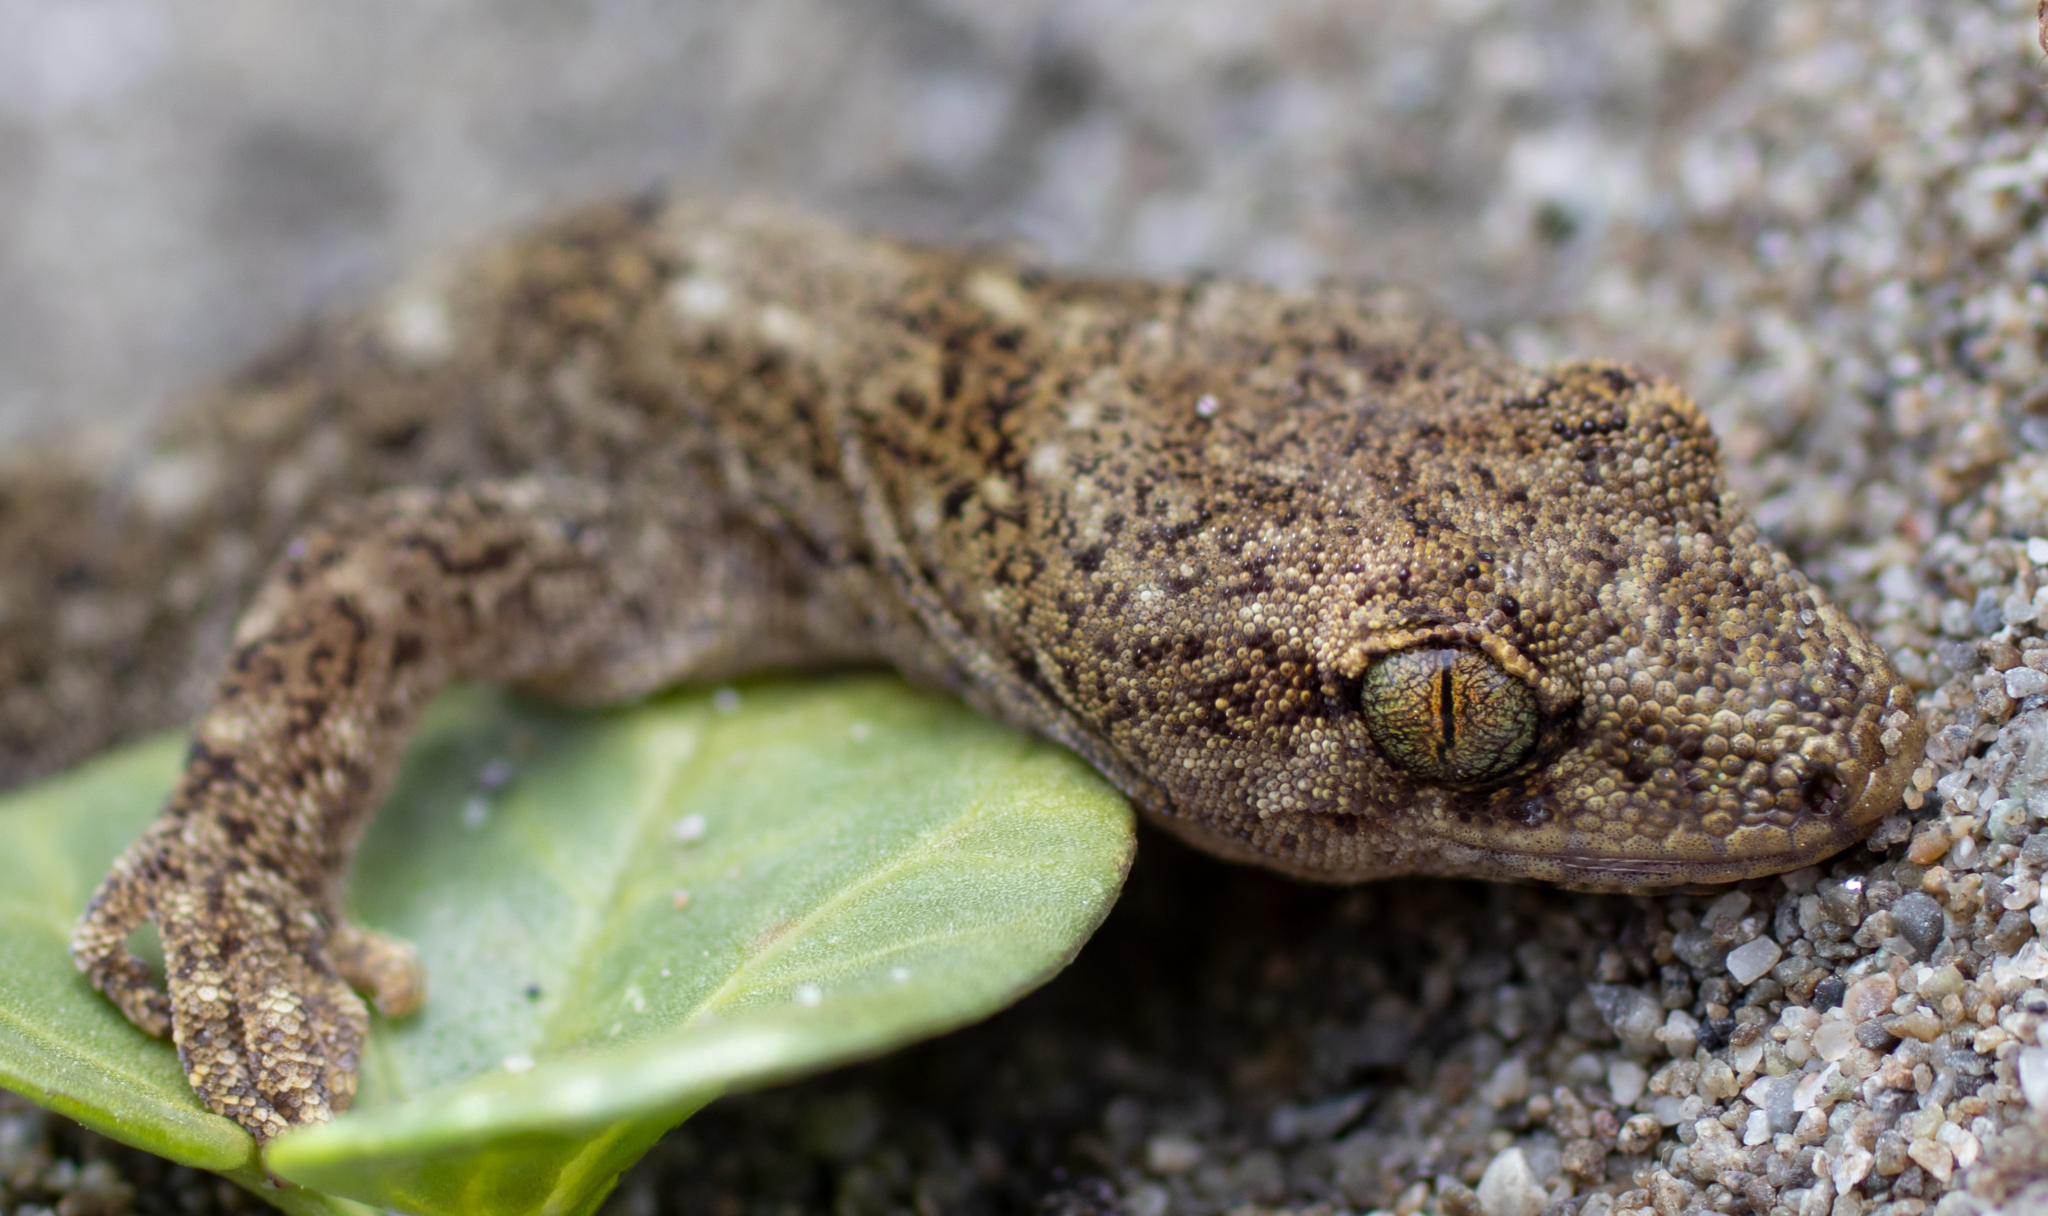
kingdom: Animalia
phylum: Chordata
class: Squamata
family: Diplodactylidae
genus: Woodworthia
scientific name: Woodworthia brunnea
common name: Canterbury gecko
